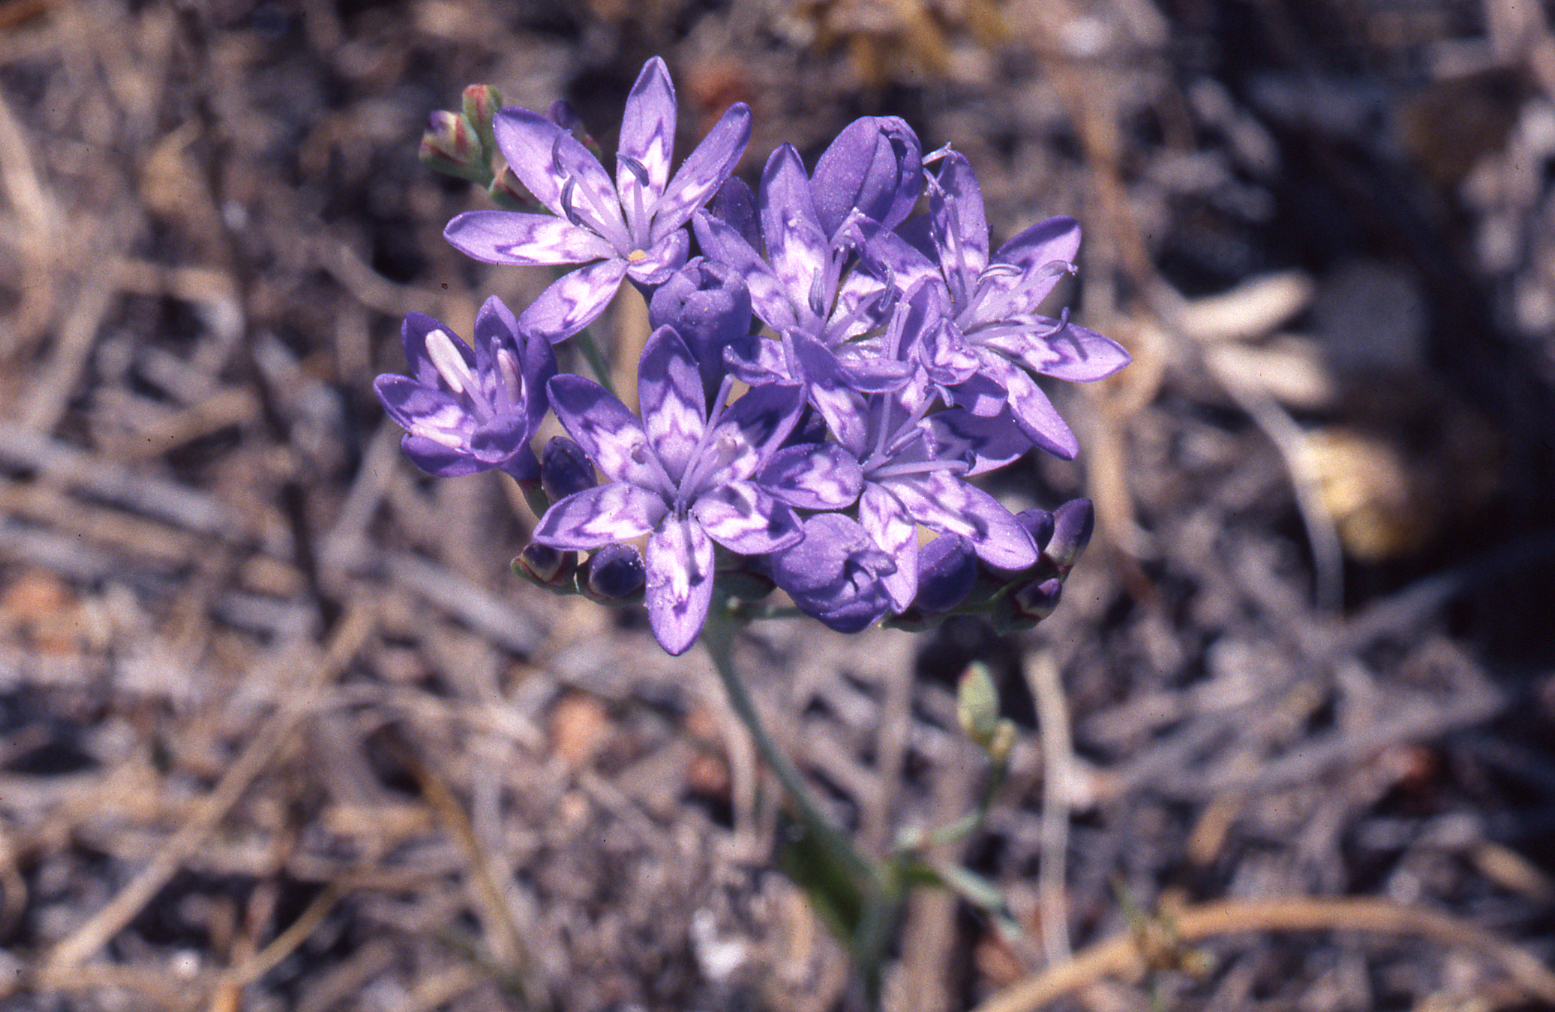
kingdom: Plantae
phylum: Tracheophyta
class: Liliopsida
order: Asparagales
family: Iridaceae
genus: Codonorhiza
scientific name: Codonorhiza corymbosa
